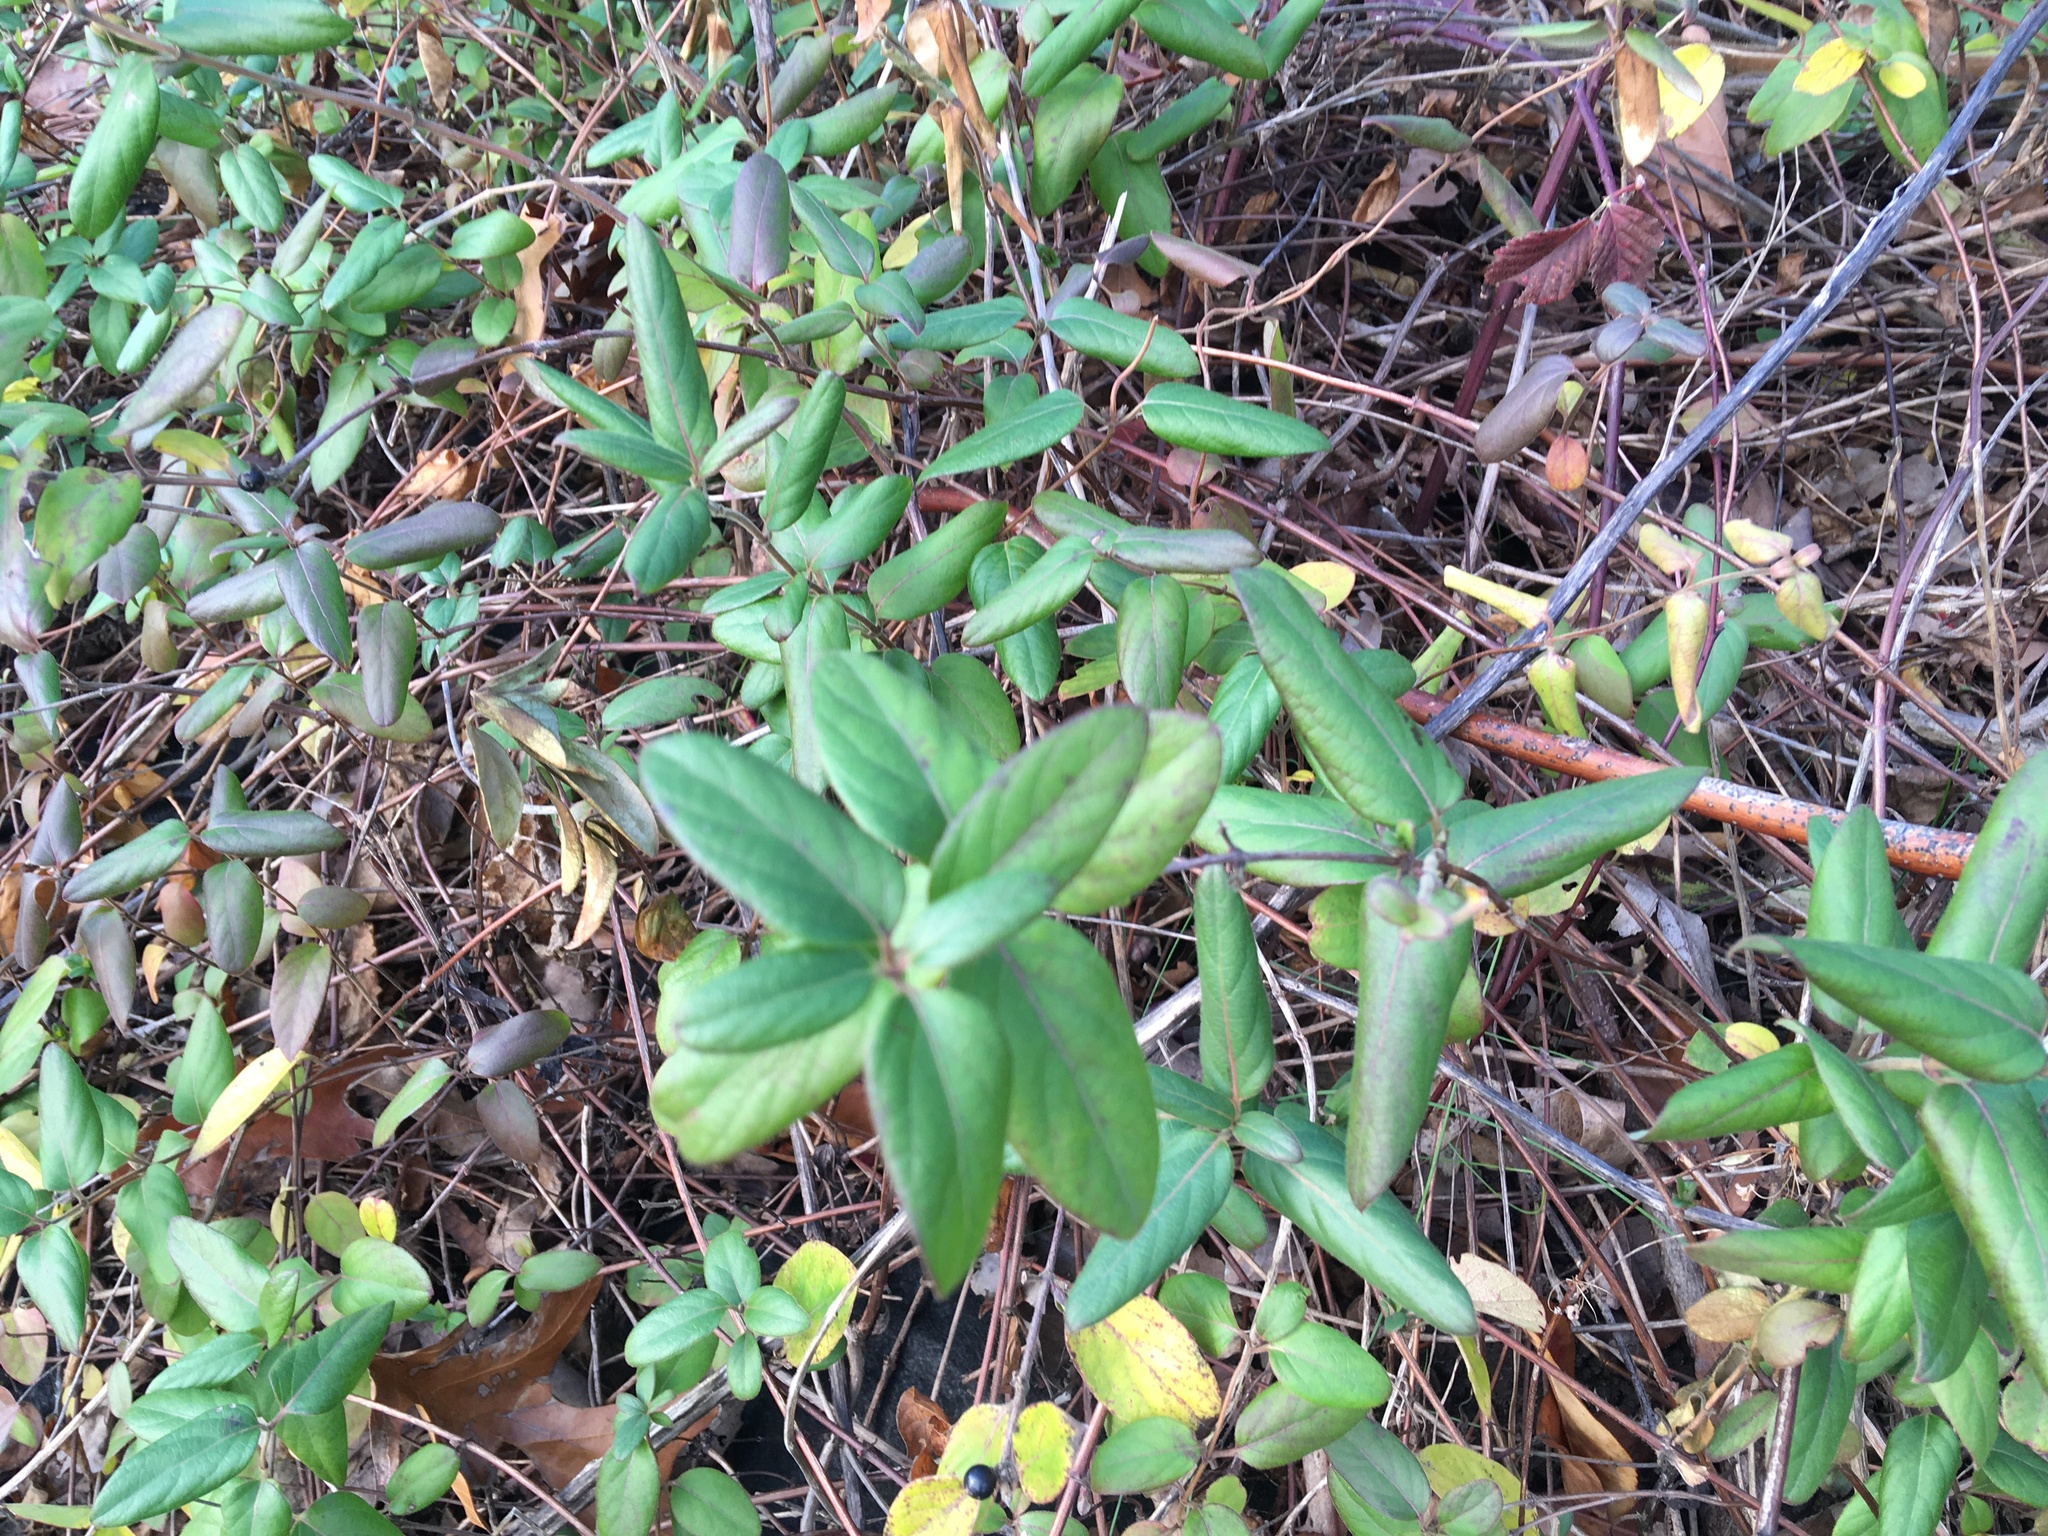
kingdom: Plantae
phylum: Tracheophyta
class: Magnoliopsida
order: Dipsacales
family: Caprifoliaceae
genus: Lonicera
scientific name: Lonicera japonica
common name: Japanese honeysuckle
